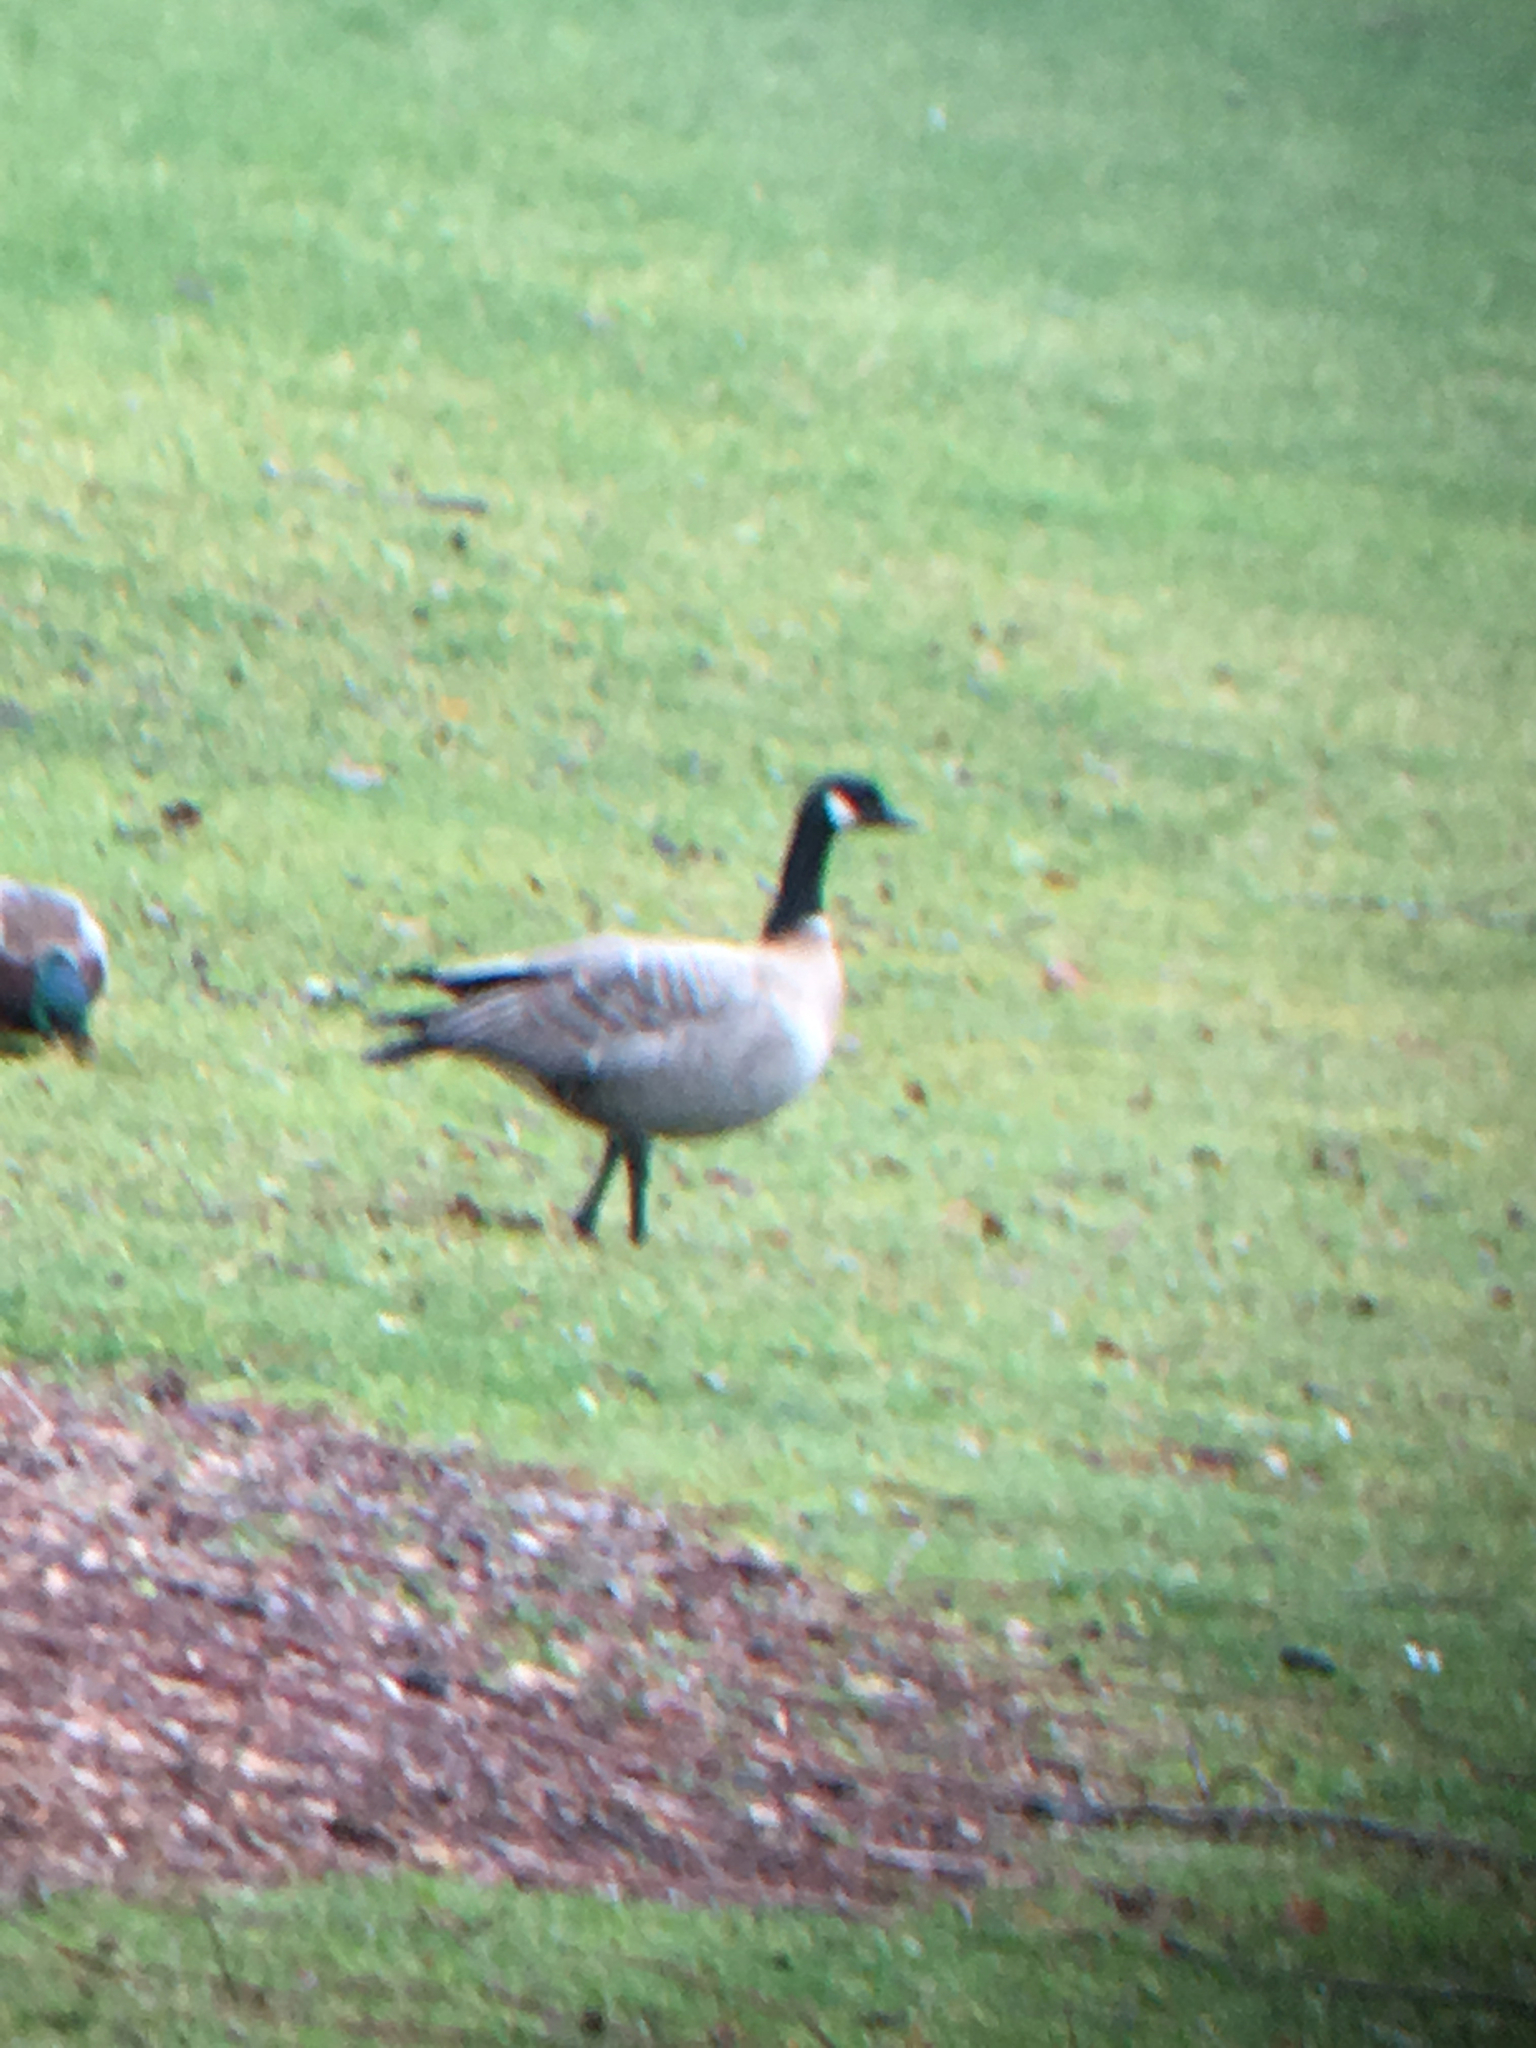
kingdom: Animalia
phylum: Chordata
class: Aves
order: Anseriformes
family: Anatidae
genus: Branta
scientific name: Branta
